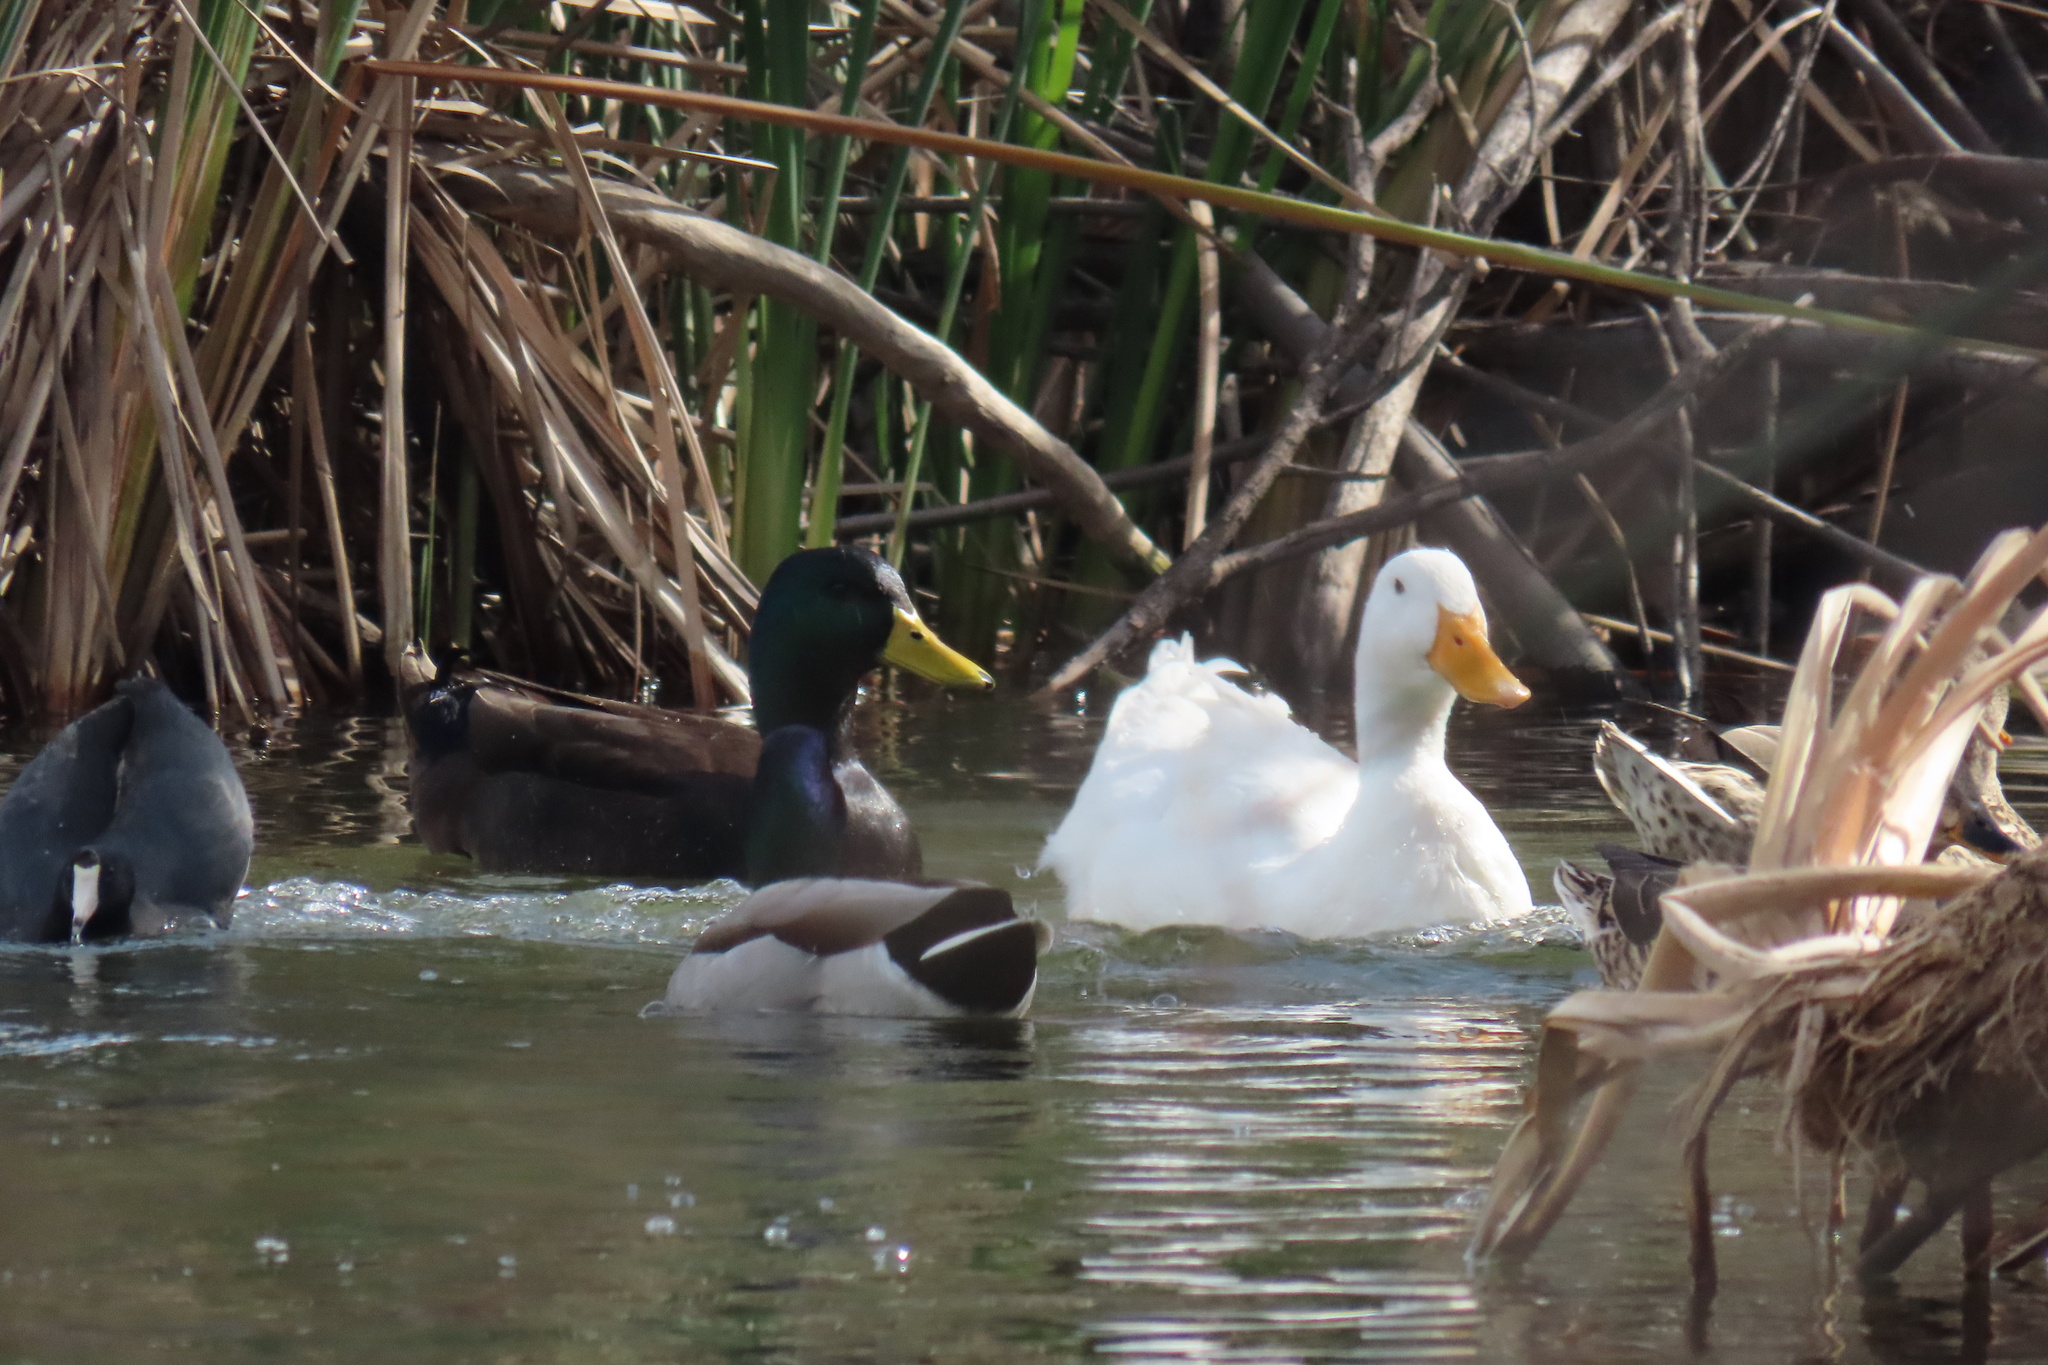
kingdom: Animalia
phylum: Chordata
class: Aves
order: Anseriformes
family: Anatidae
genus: Anas
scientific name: Anas platyrhynchos
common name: Mallard
